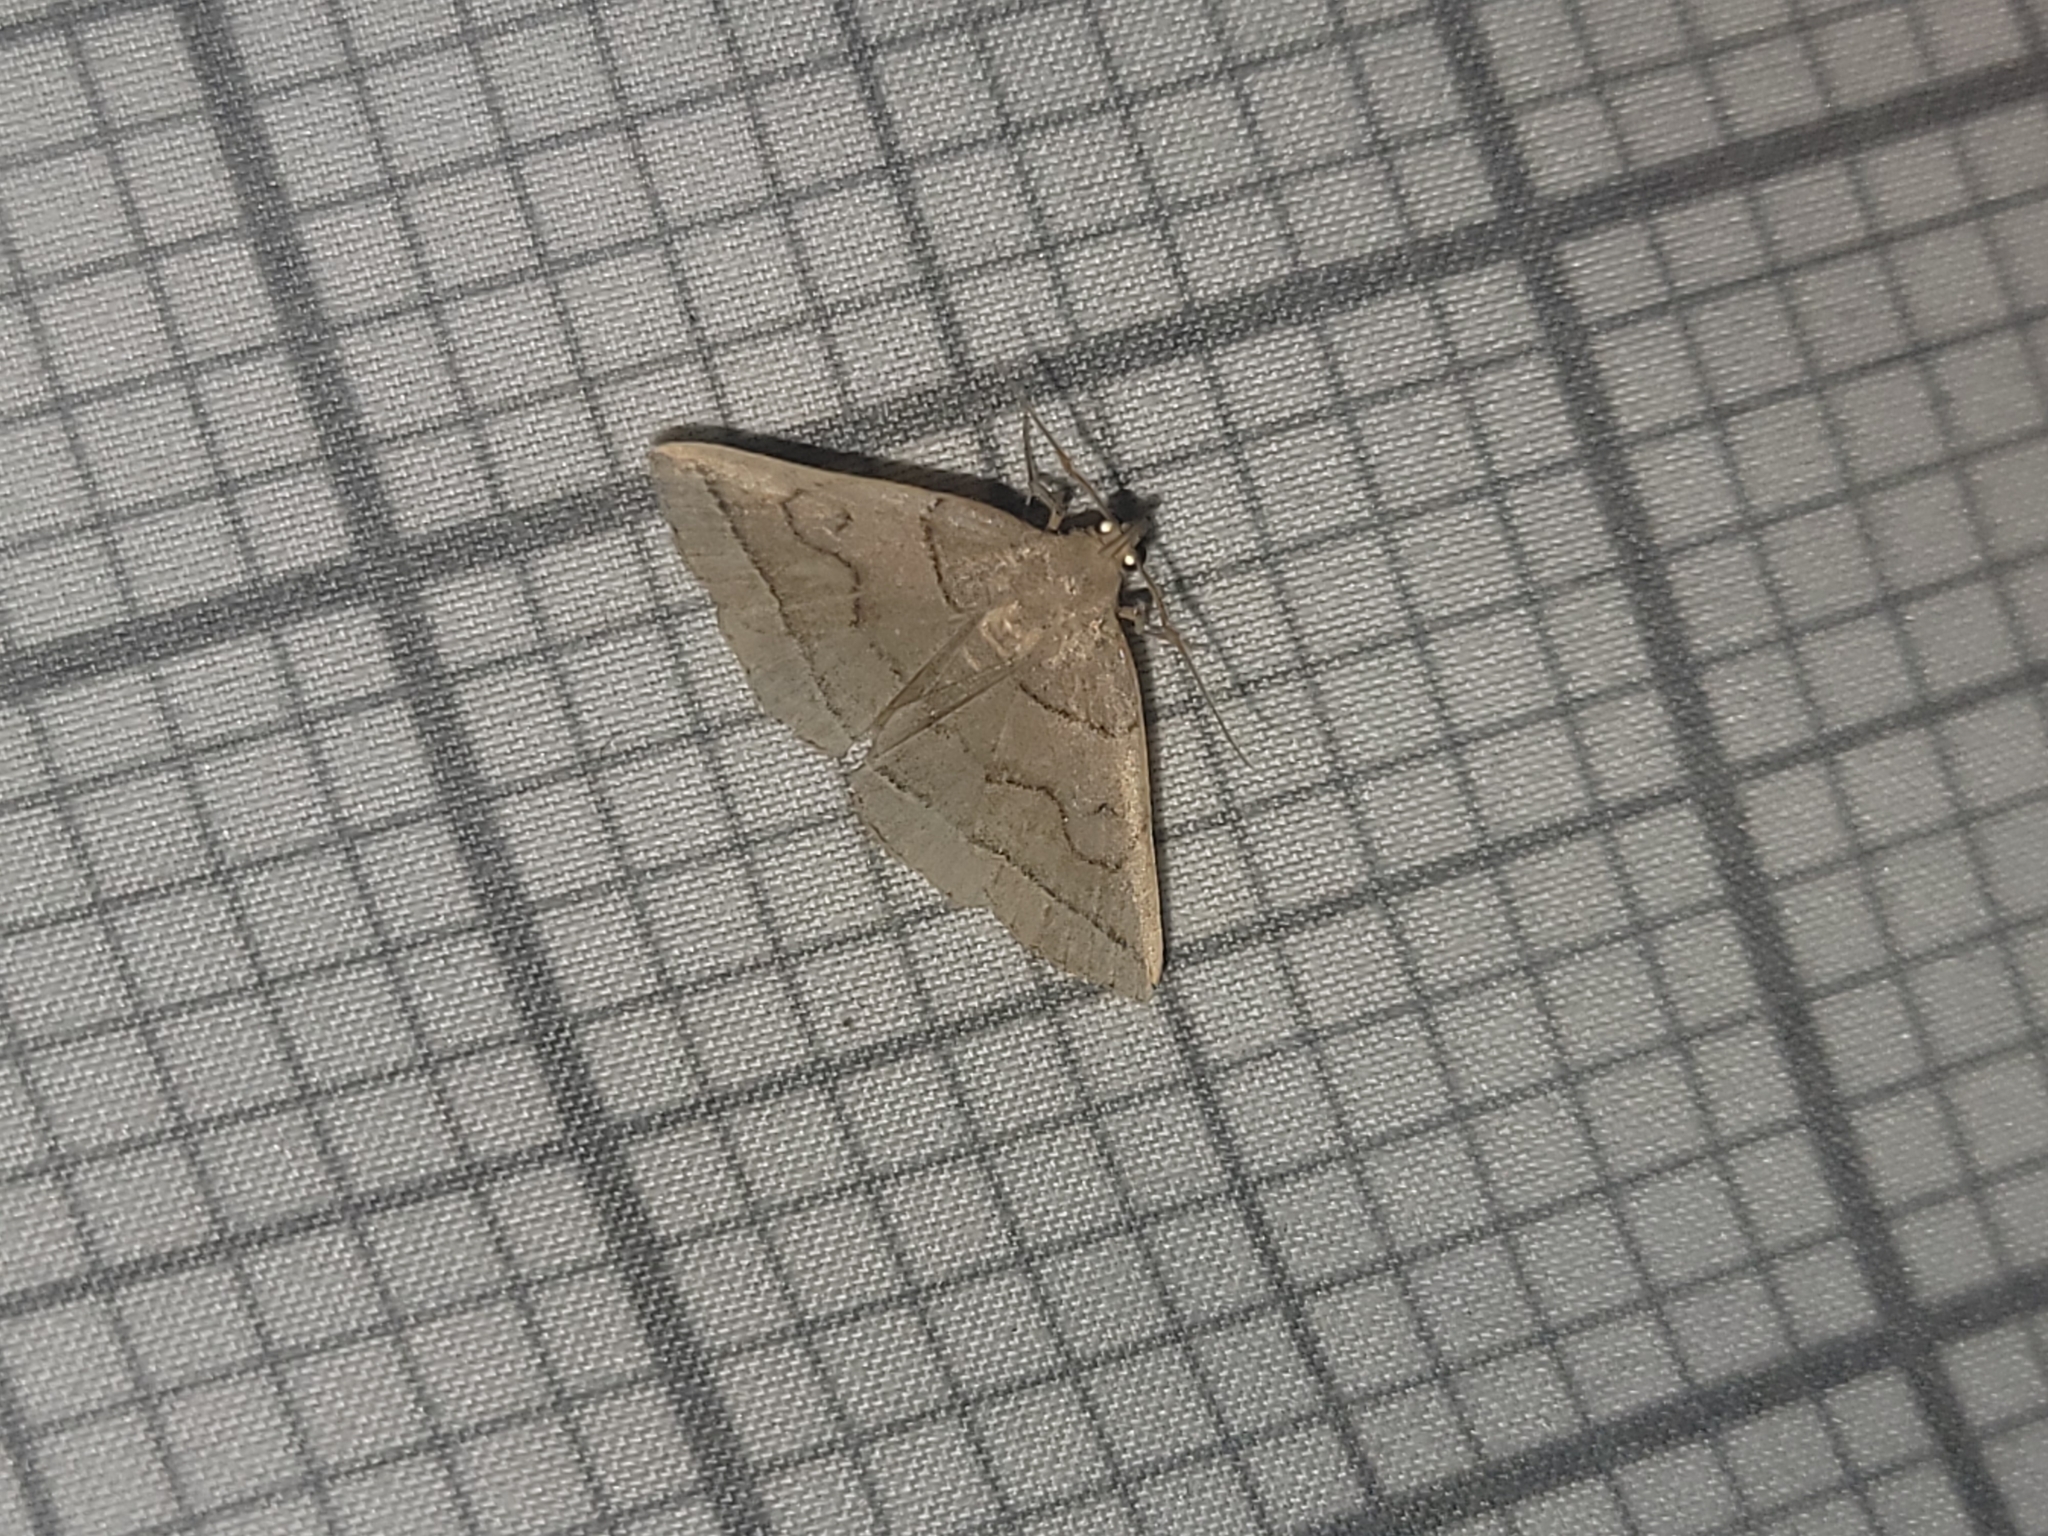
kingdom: Animalia
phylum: Arthropoda
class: Insecta
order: Lepidoptera
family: Erebidae
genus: Zanclognatha
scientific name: Zanclognatha cruralis
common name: Early fan-foot
